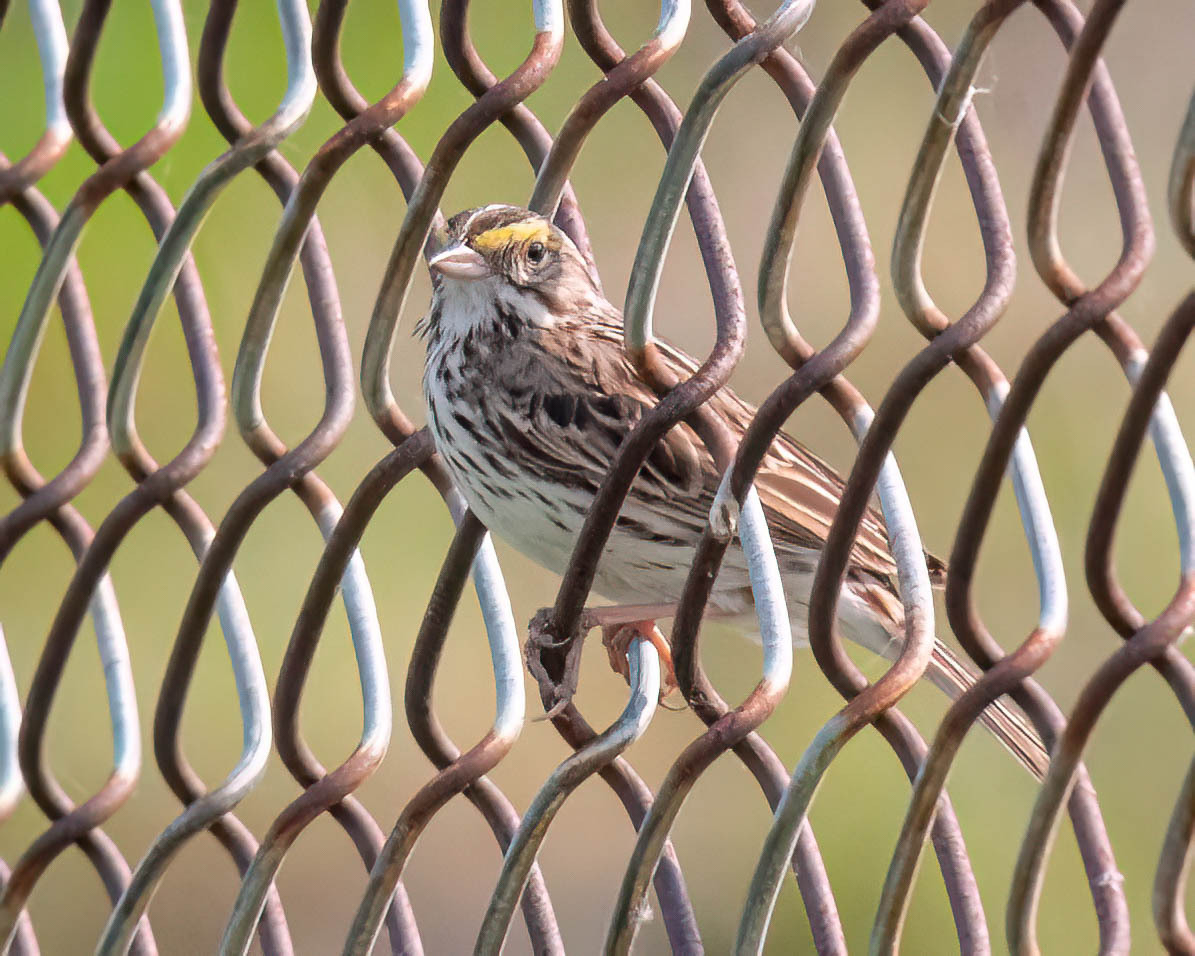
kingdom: Animalia
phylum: Chordata
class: Aves
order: Passeriformes
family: Passerellidae
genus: Passerculus
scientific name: Passerculus sandwichensis
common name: Savannah sparrow
